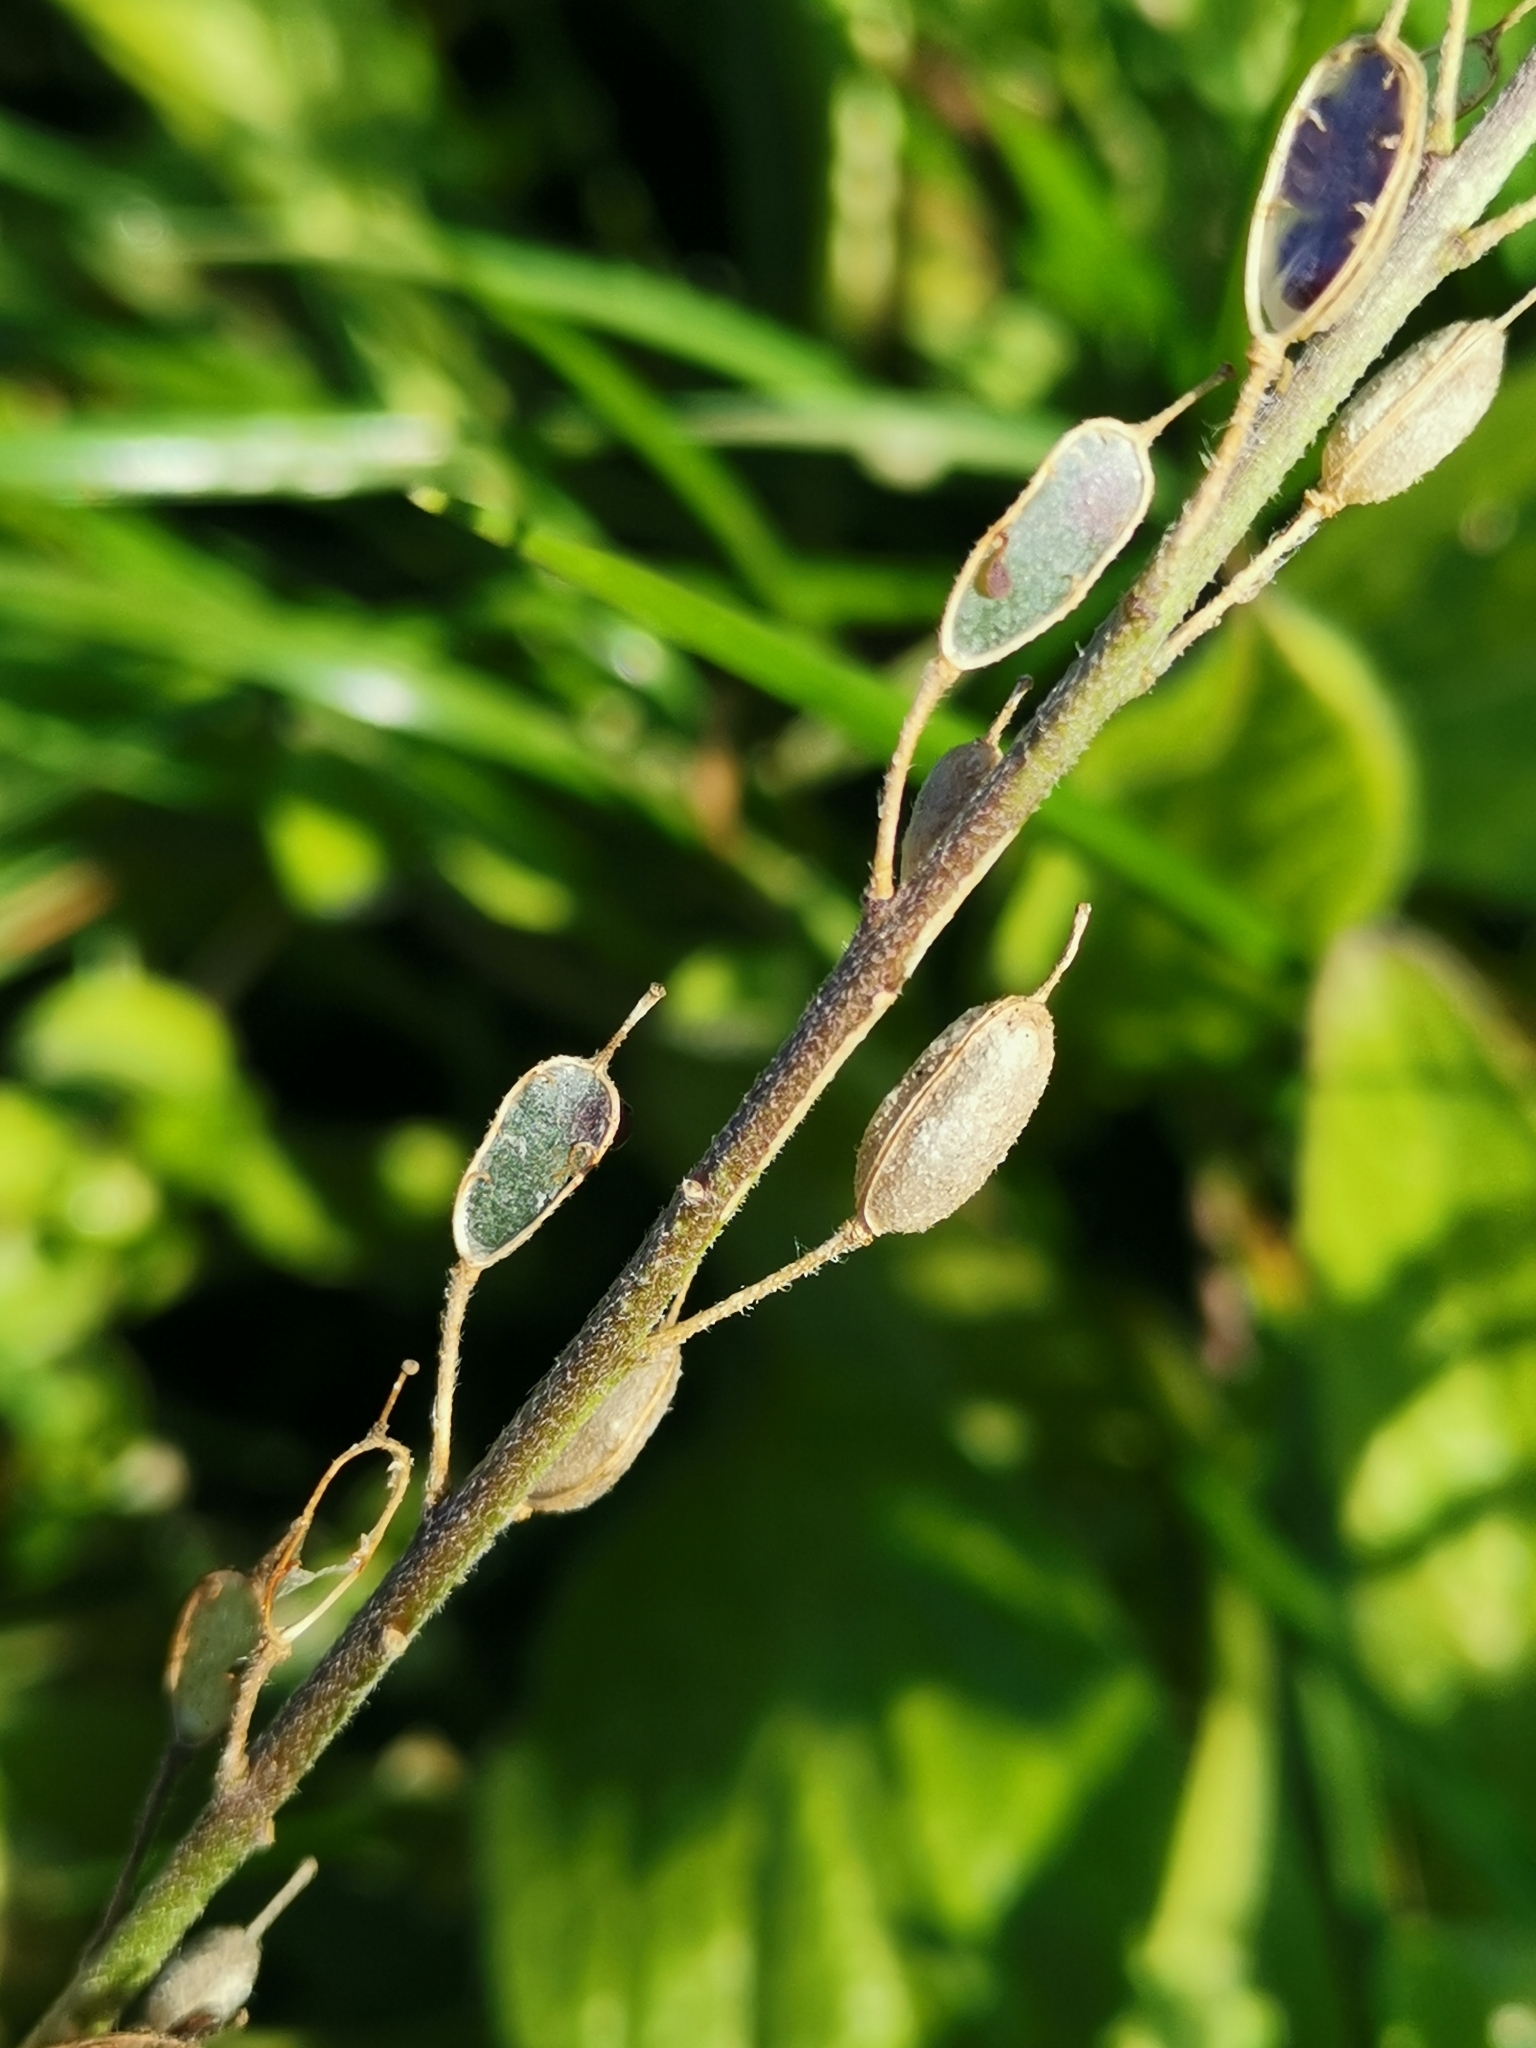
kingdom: Plantae
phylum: Tracheophyta
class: Magnoliopsida
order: Brassicales
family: Brassicaceae
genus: Berteroa
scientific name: Berteroa incana
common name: Hoary alison
